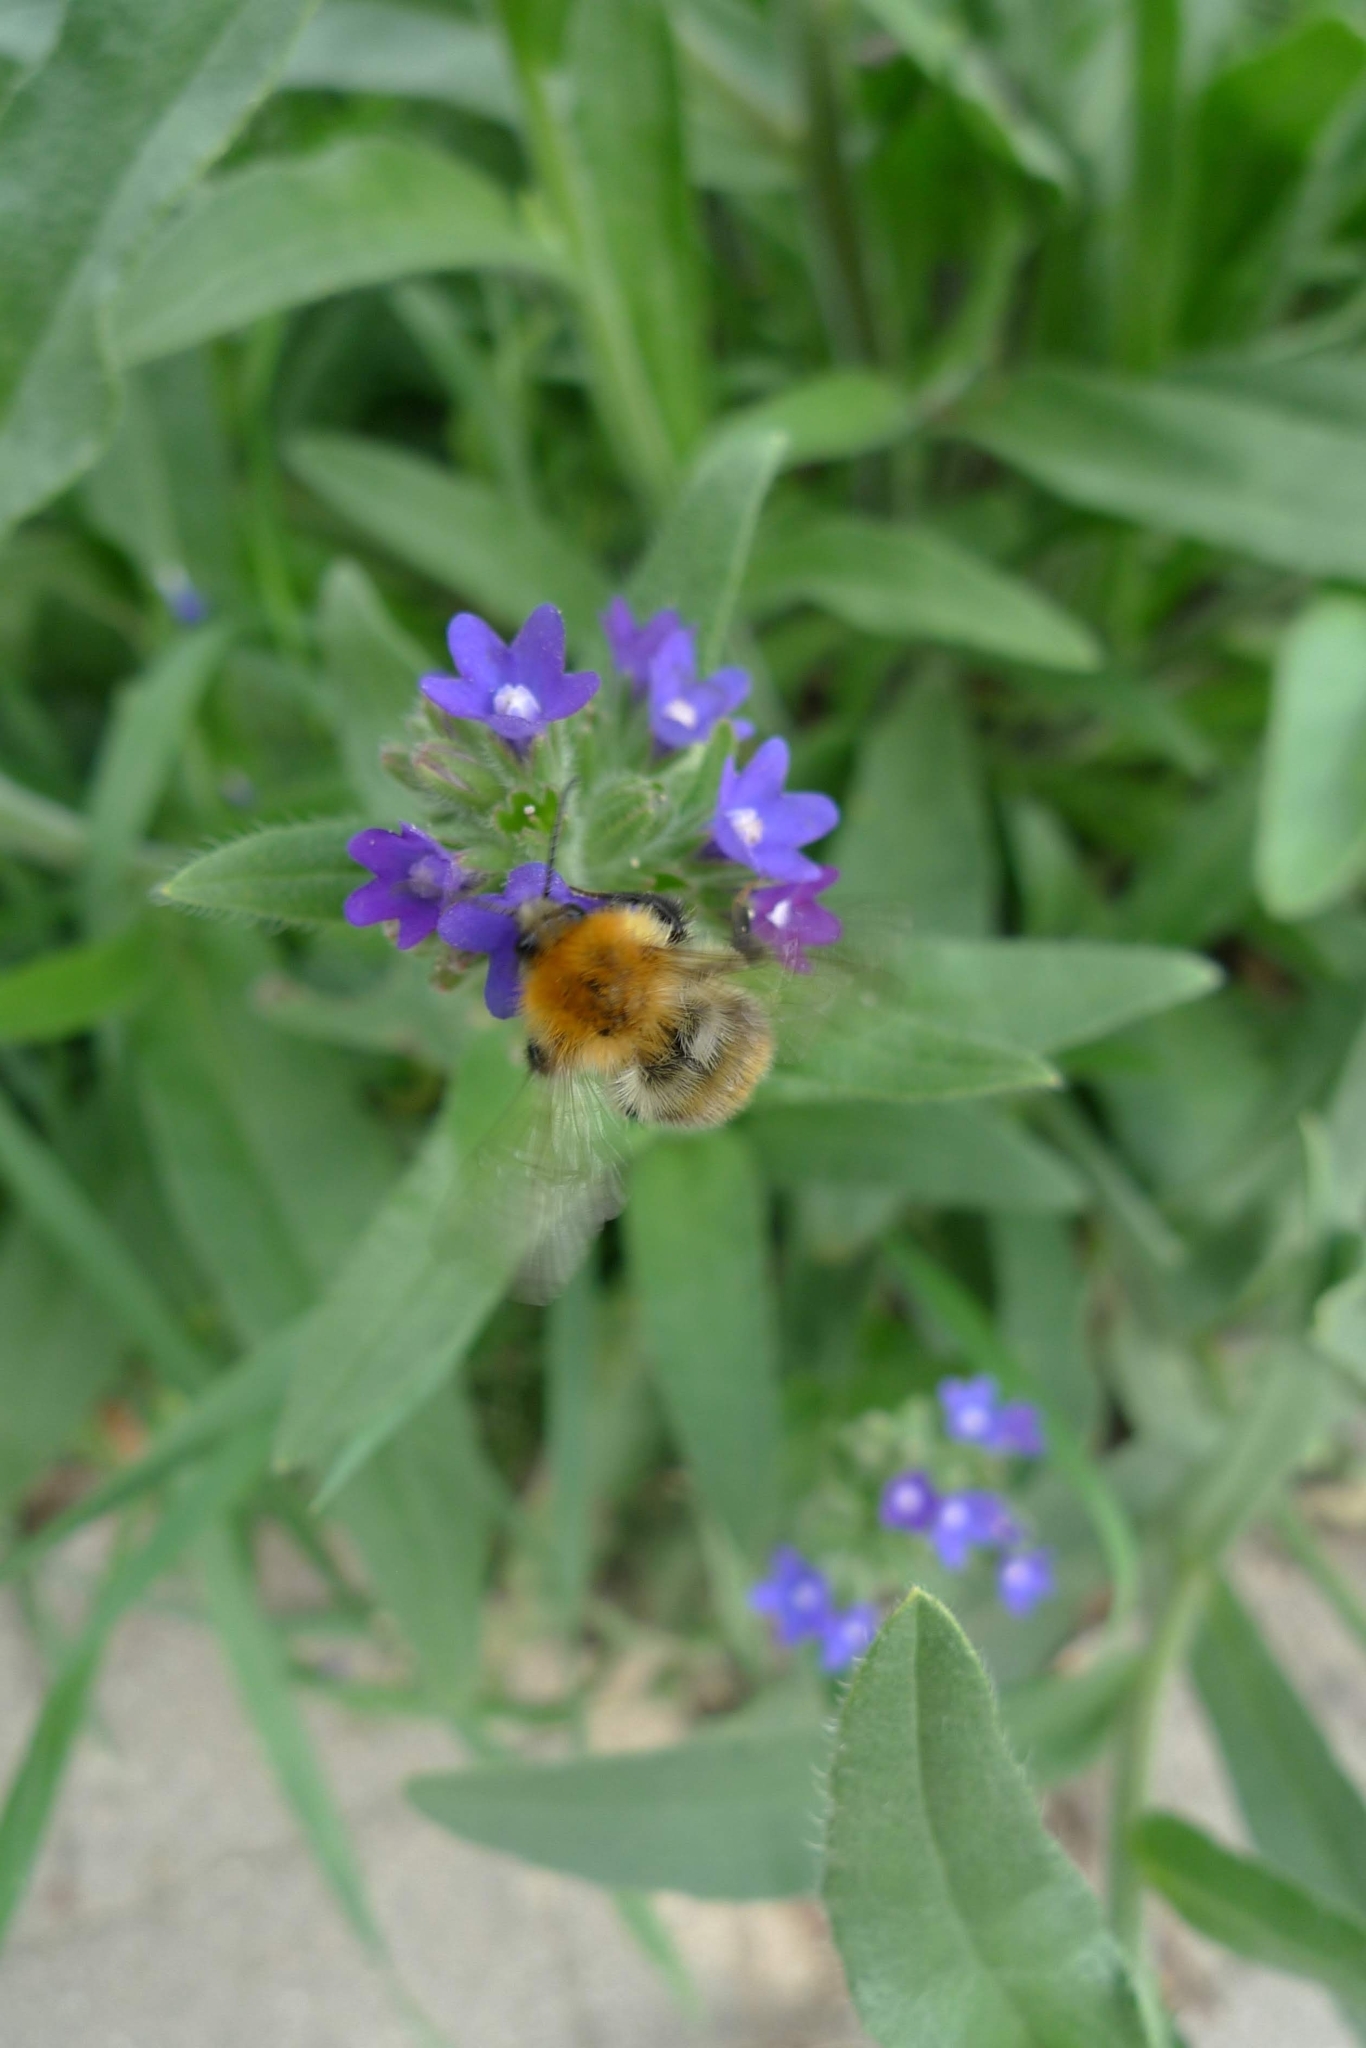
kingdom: Animalia
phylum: Arthropoda
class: Insecta
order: Hymenoptera
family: Apidae
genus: Bombus
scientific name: Bombus pascuorum
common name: Common carder bee
